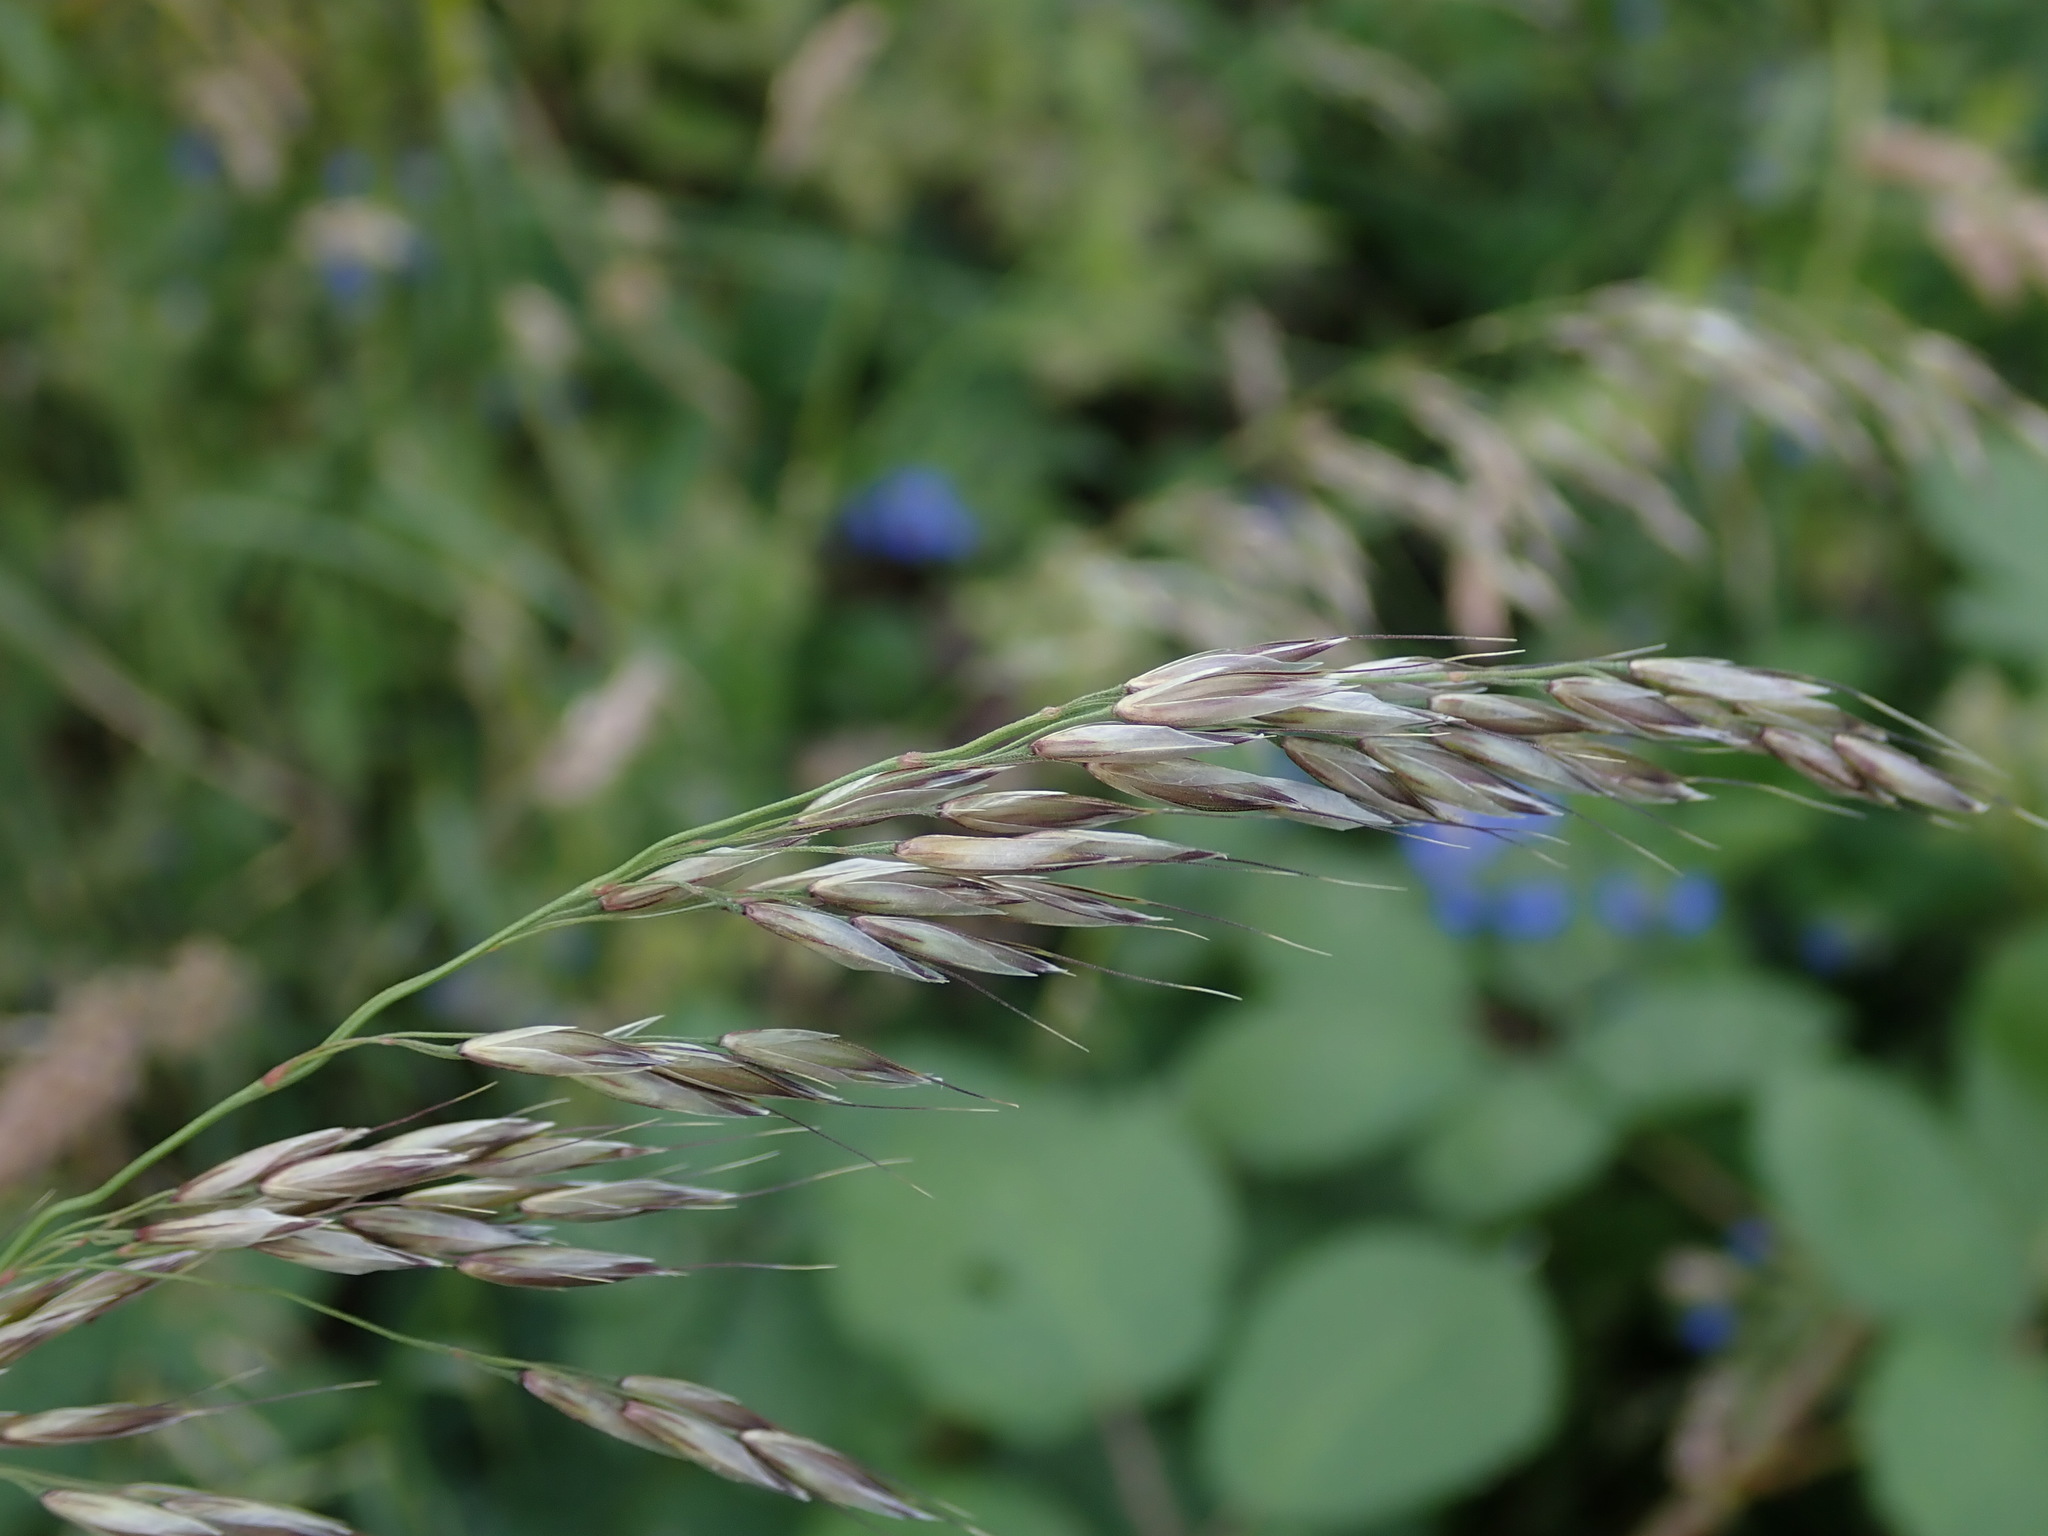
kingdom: Plantae
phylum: Tracheophyta
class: Liliopsida
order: Poales
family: Poaceae
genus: Arrhenatherum
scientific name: Arrhenatherum elatius
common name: Tall oatgrass
